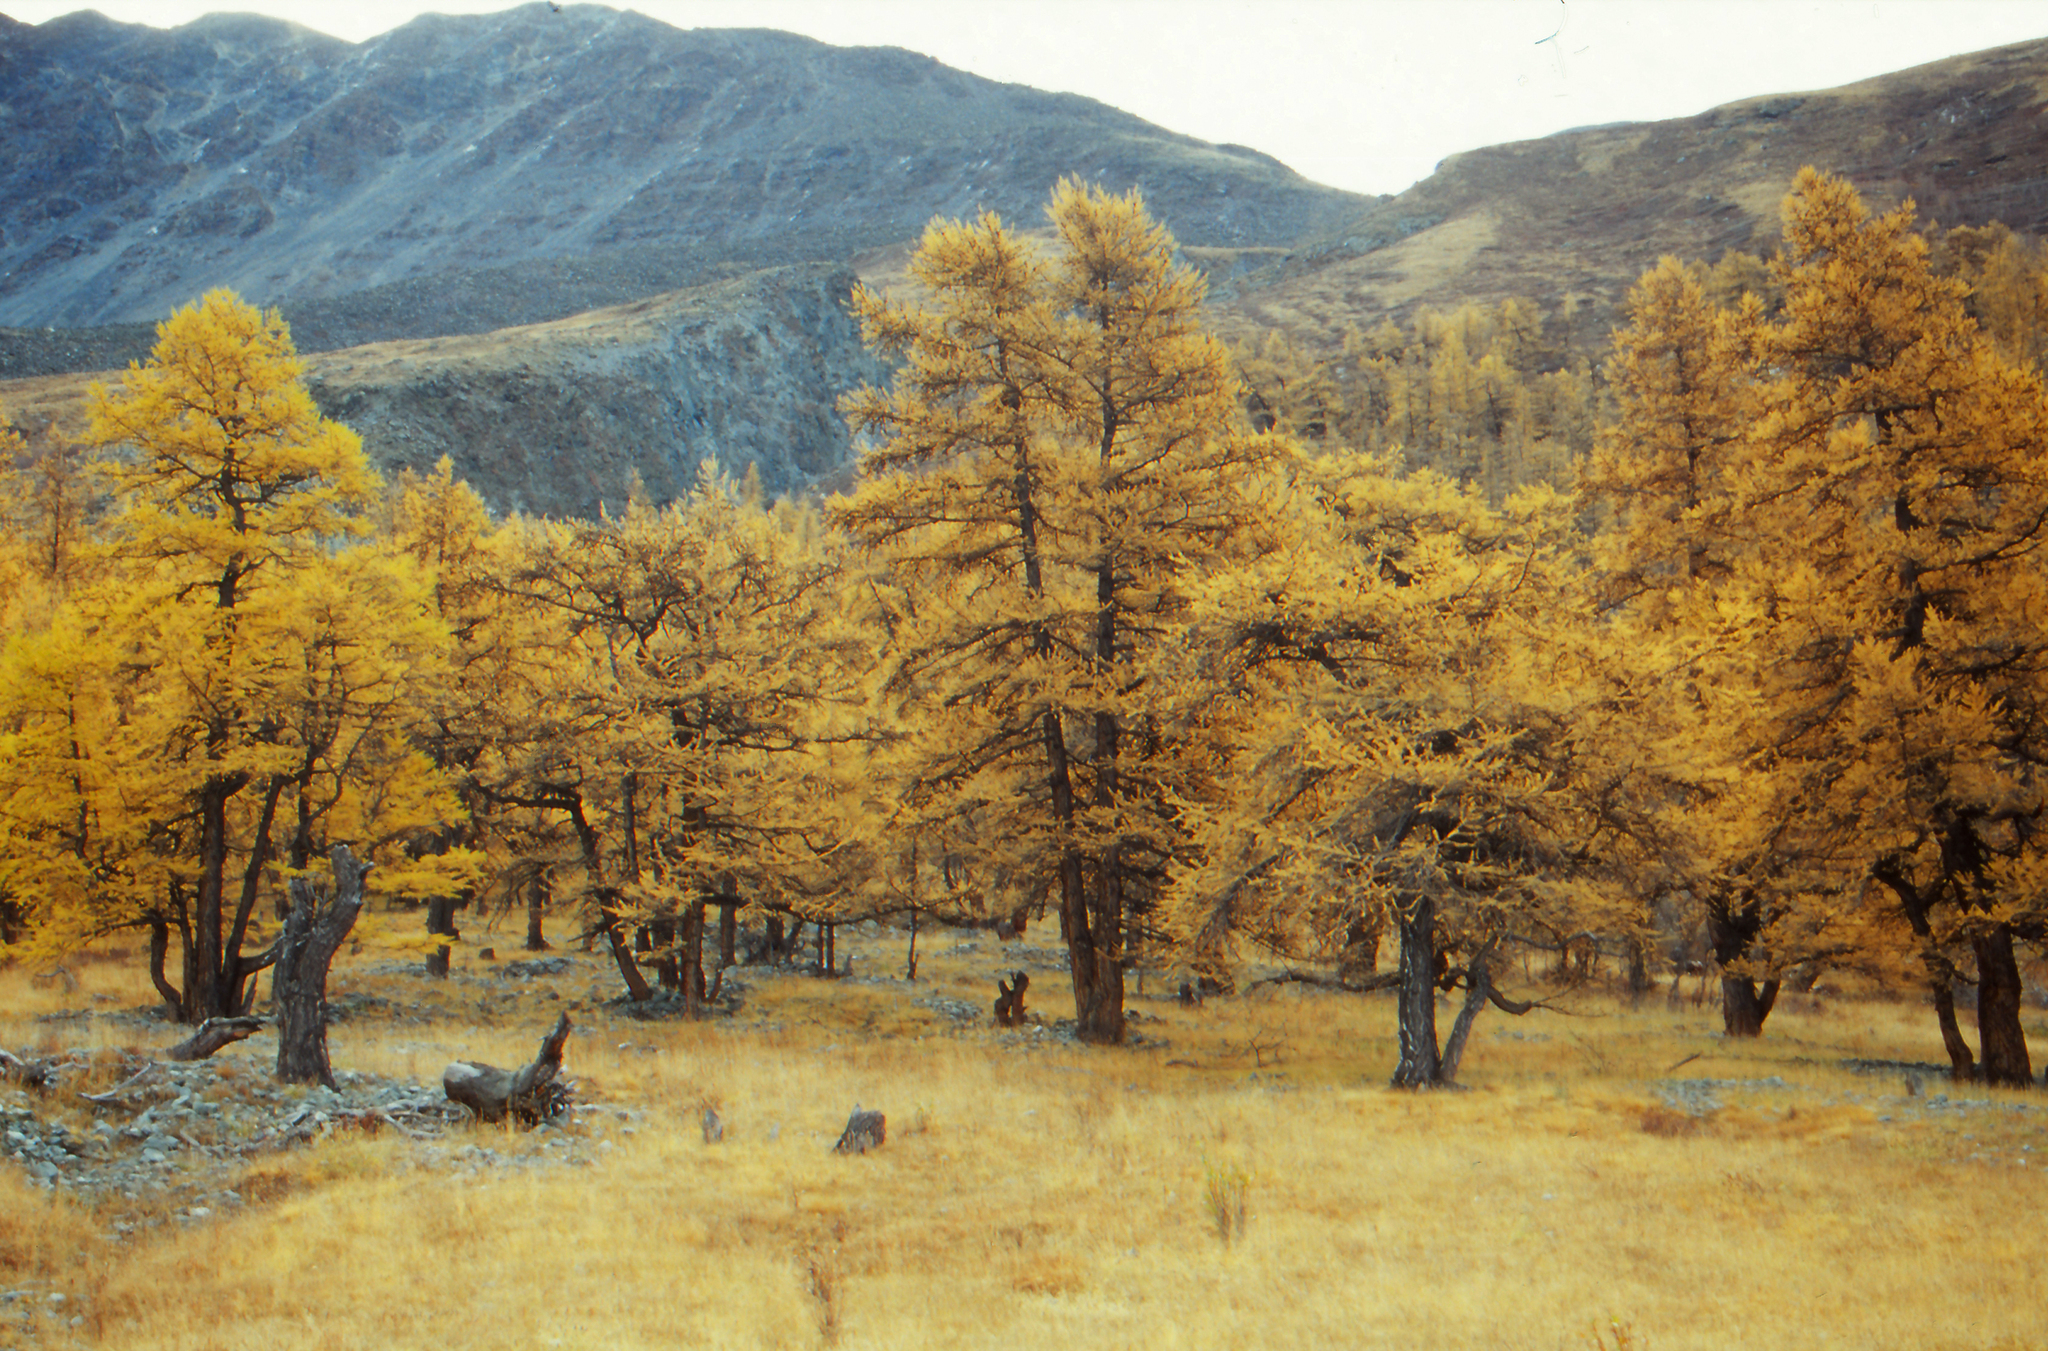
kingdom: Plantae
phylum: Tracheophyta
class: Pinopsida
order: Pinales
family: Pinaceae
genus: Larix
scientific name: Larix sibirica
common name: Siberian larch
